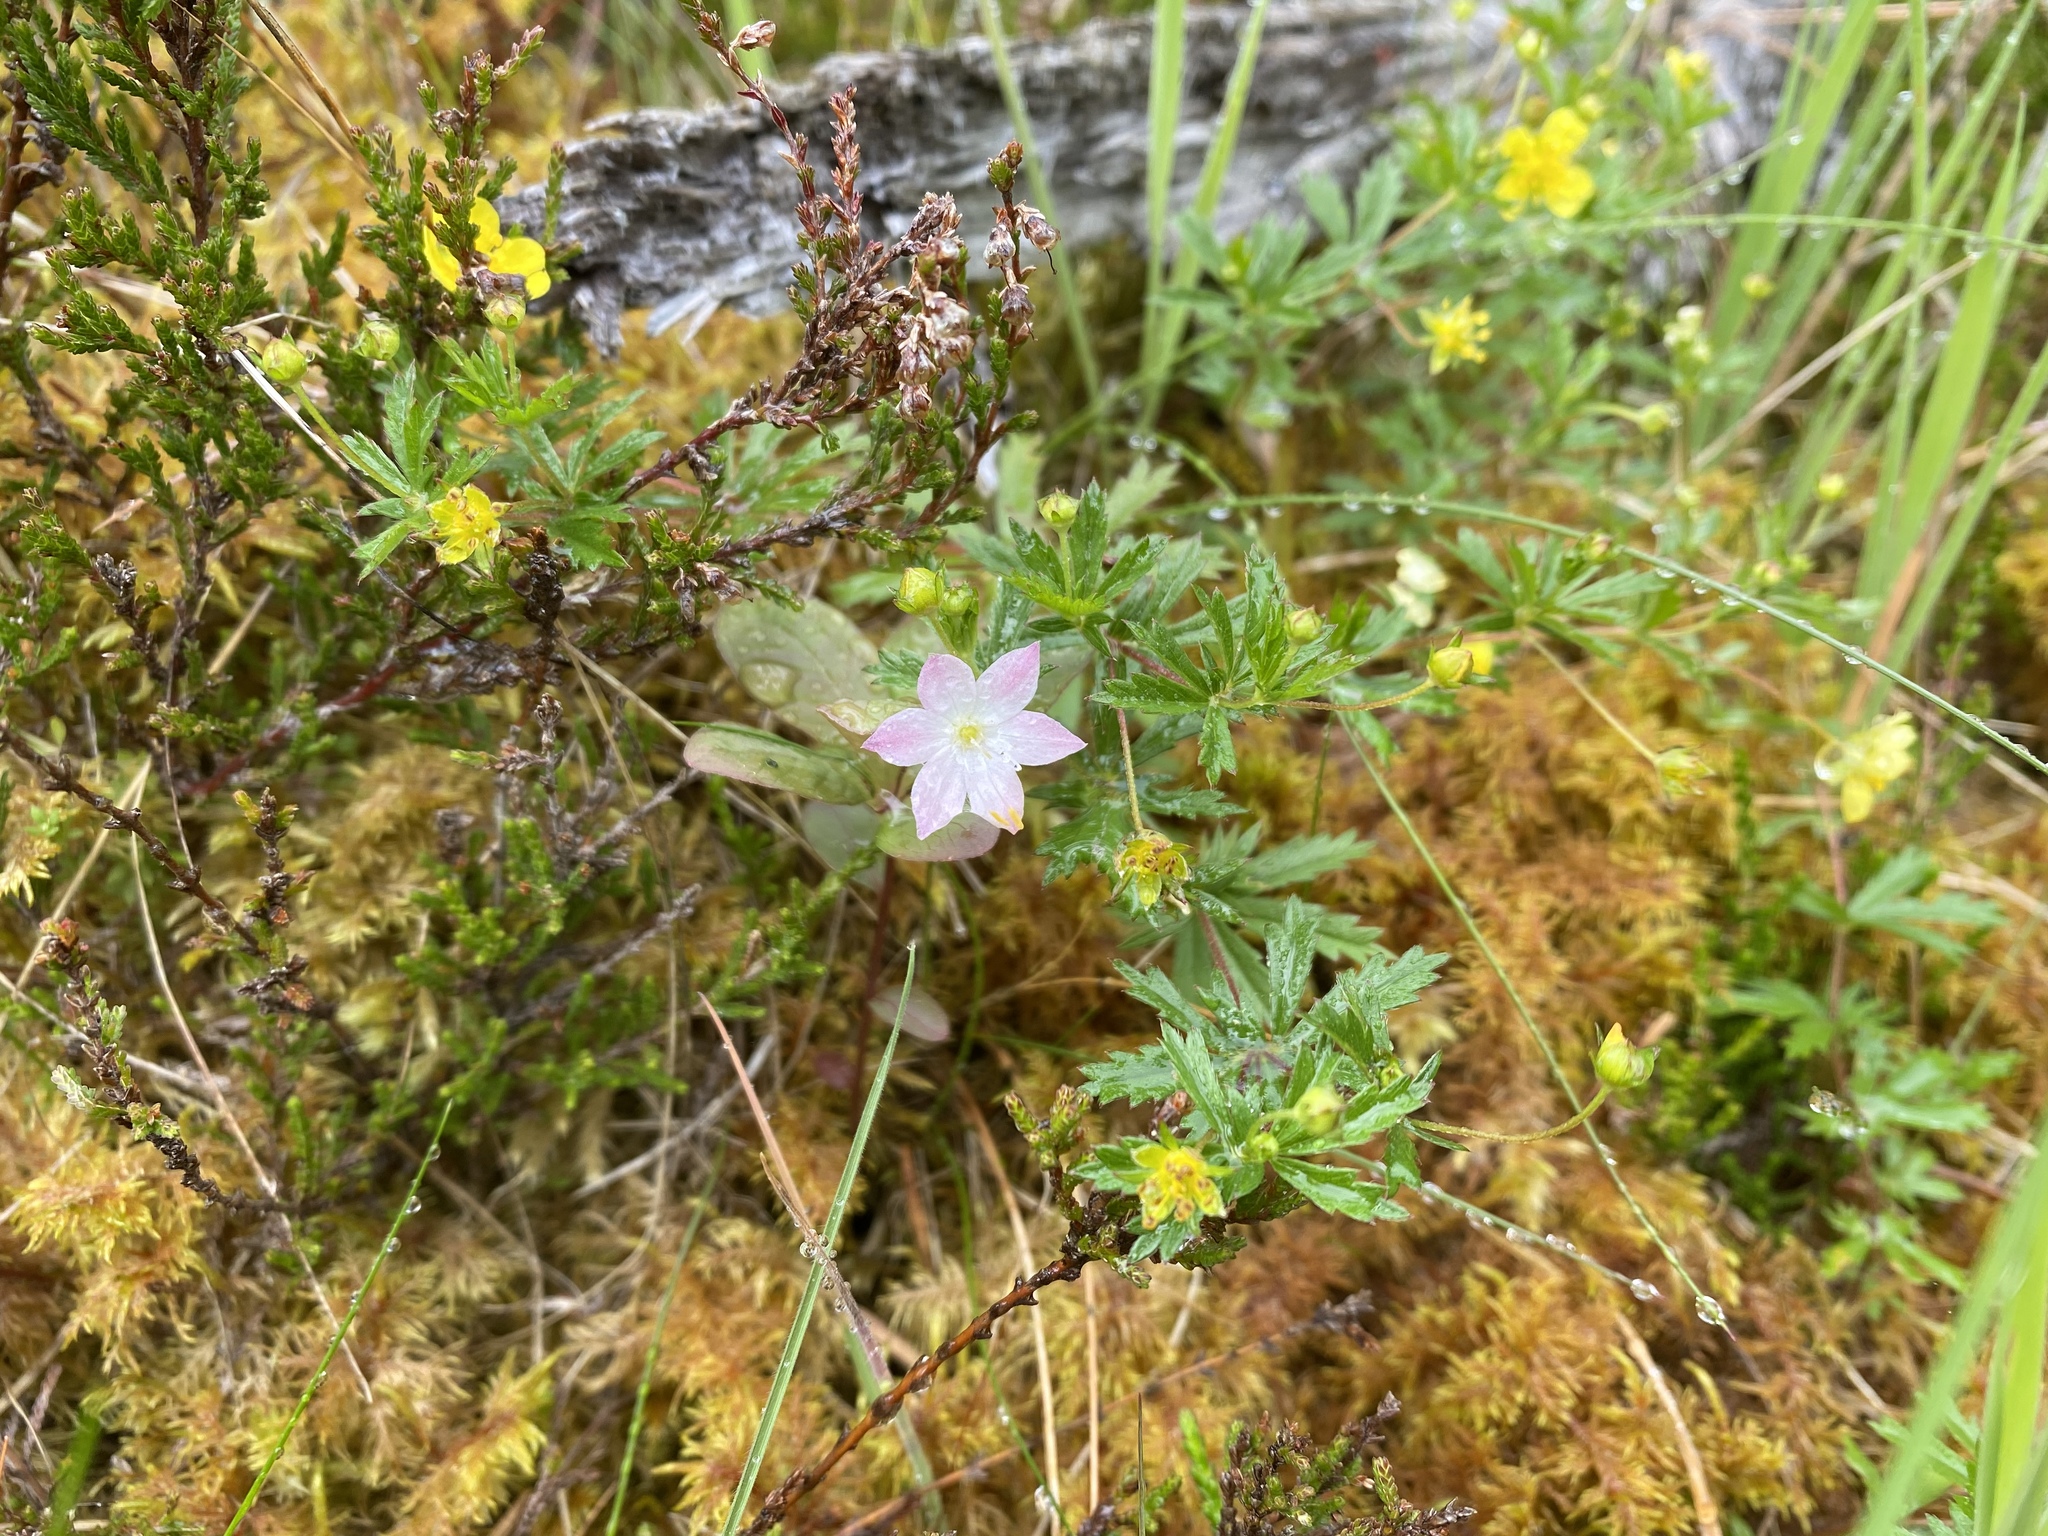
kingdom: Plantae
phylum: Tracheophyta
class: Magnoliopsida
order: Ericales
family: Primulaceae
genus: Lysimachia
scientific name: Lysimachia europaea
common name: Arctic starflower
